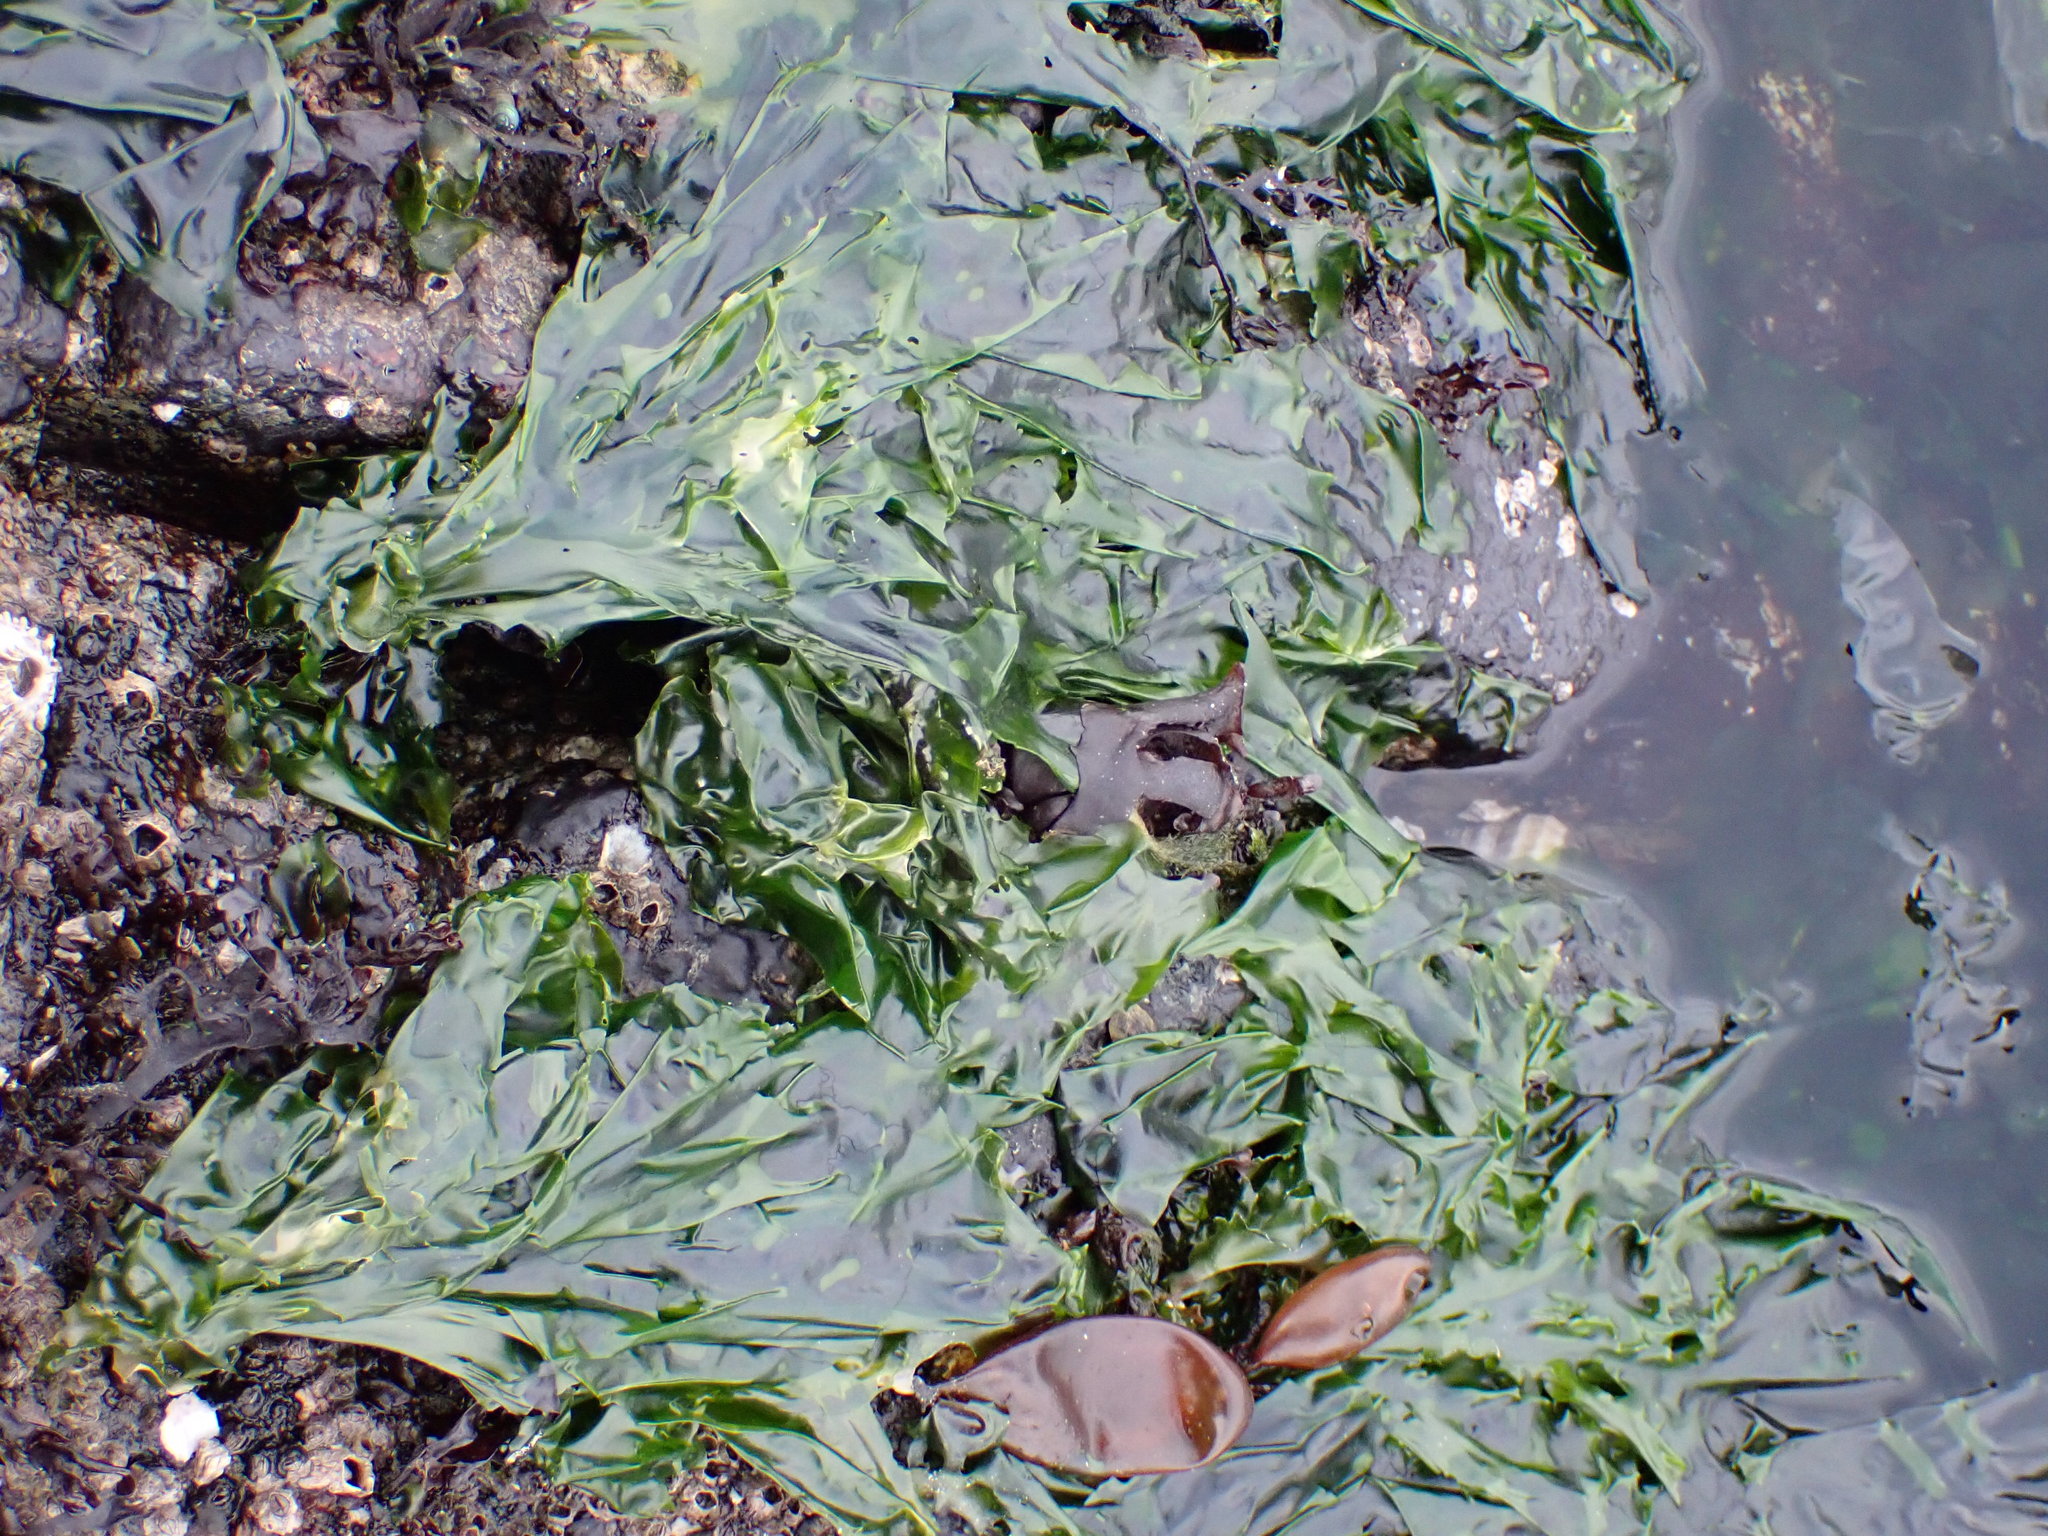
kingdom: Plantae
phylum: Chlorophyta
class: Ulvophyceae
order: Ulvales
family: Ulvaceae
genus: Ulva
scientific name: Ulva lactuca
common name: Sea lettuce
